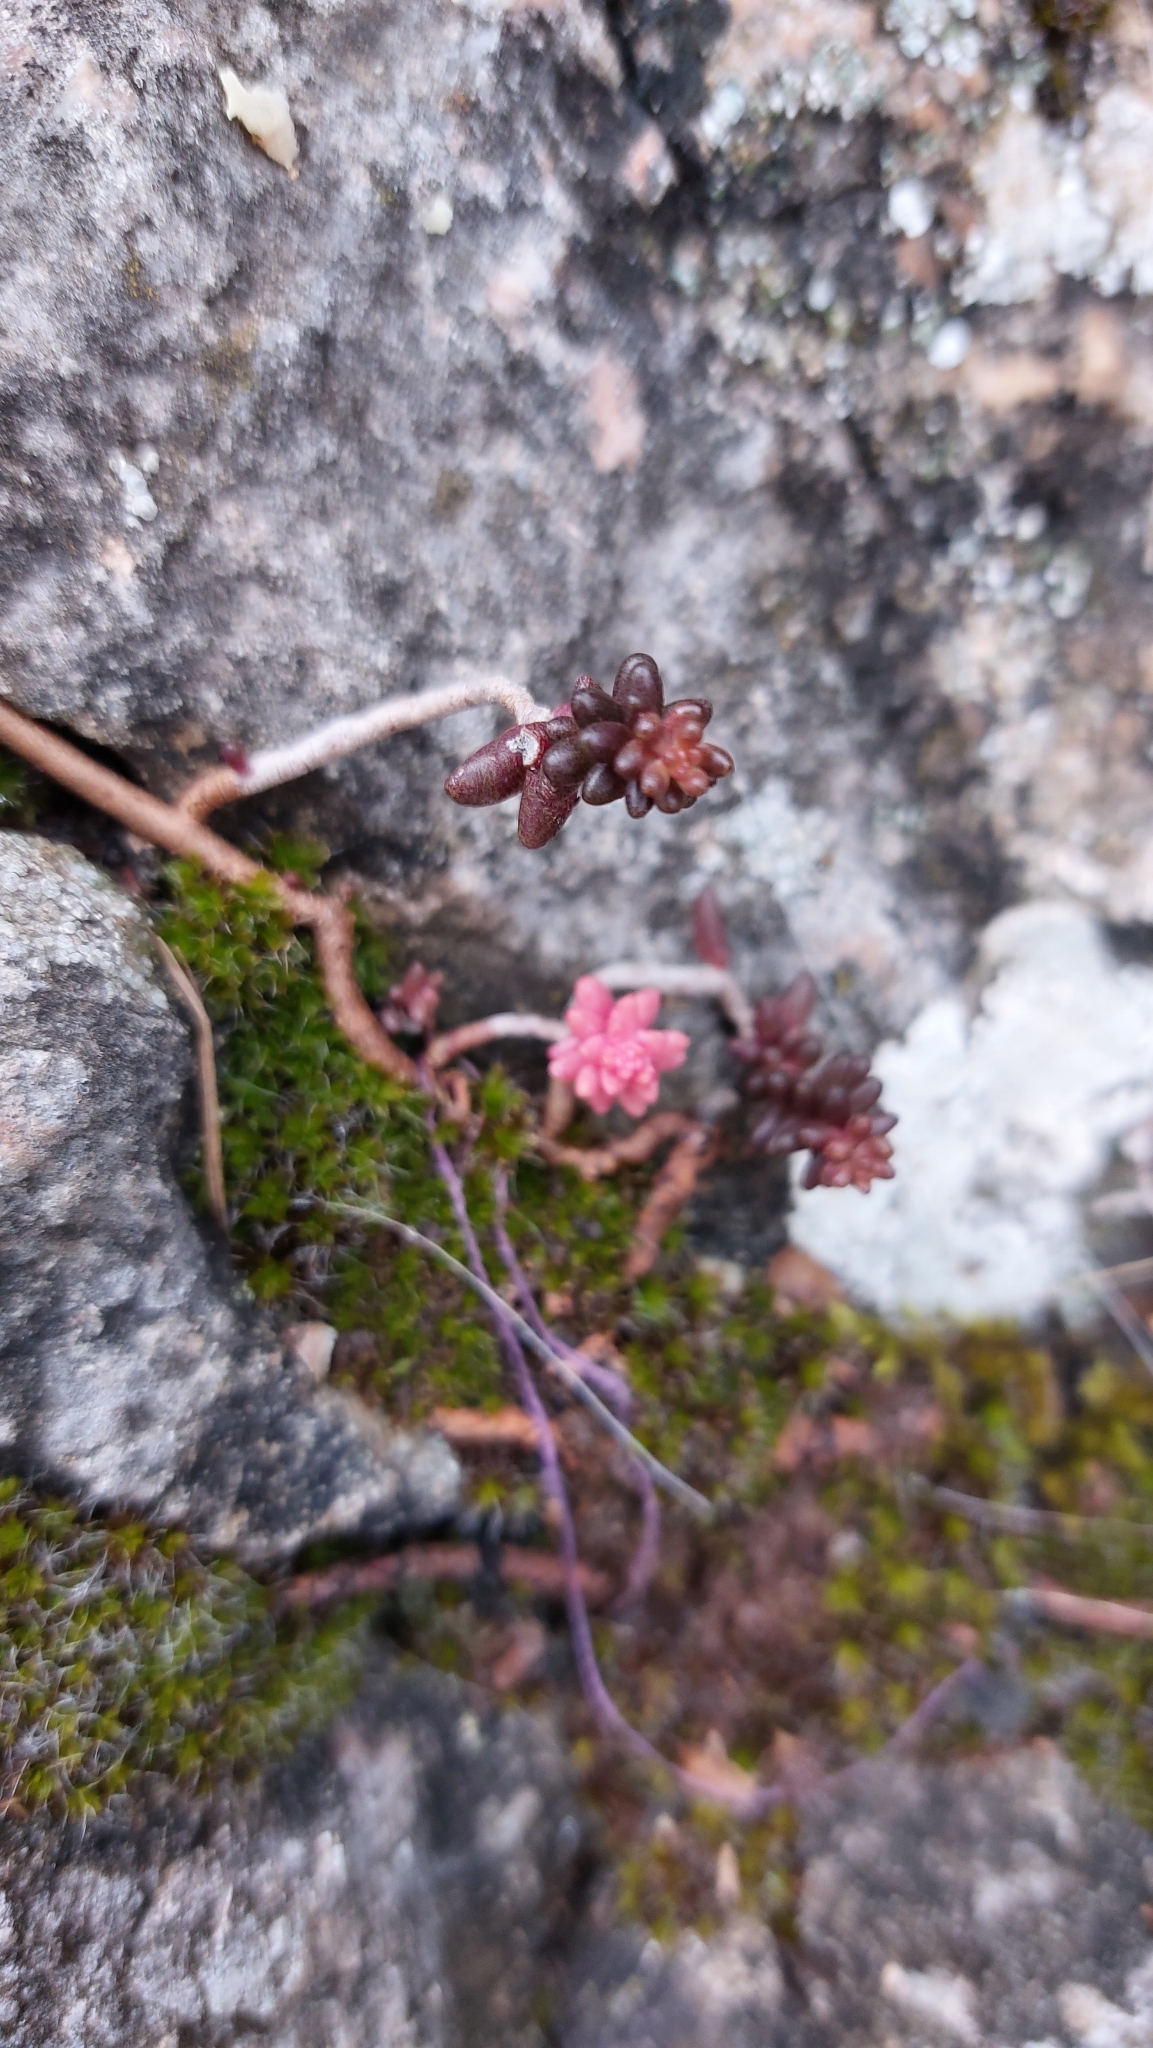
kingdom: Plantae
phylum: Tracheophyta
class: Magnoliopsida
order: Saxifragales
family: Crassulaceae
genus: Sedum
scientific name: Sedum album
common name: White stonecrop
